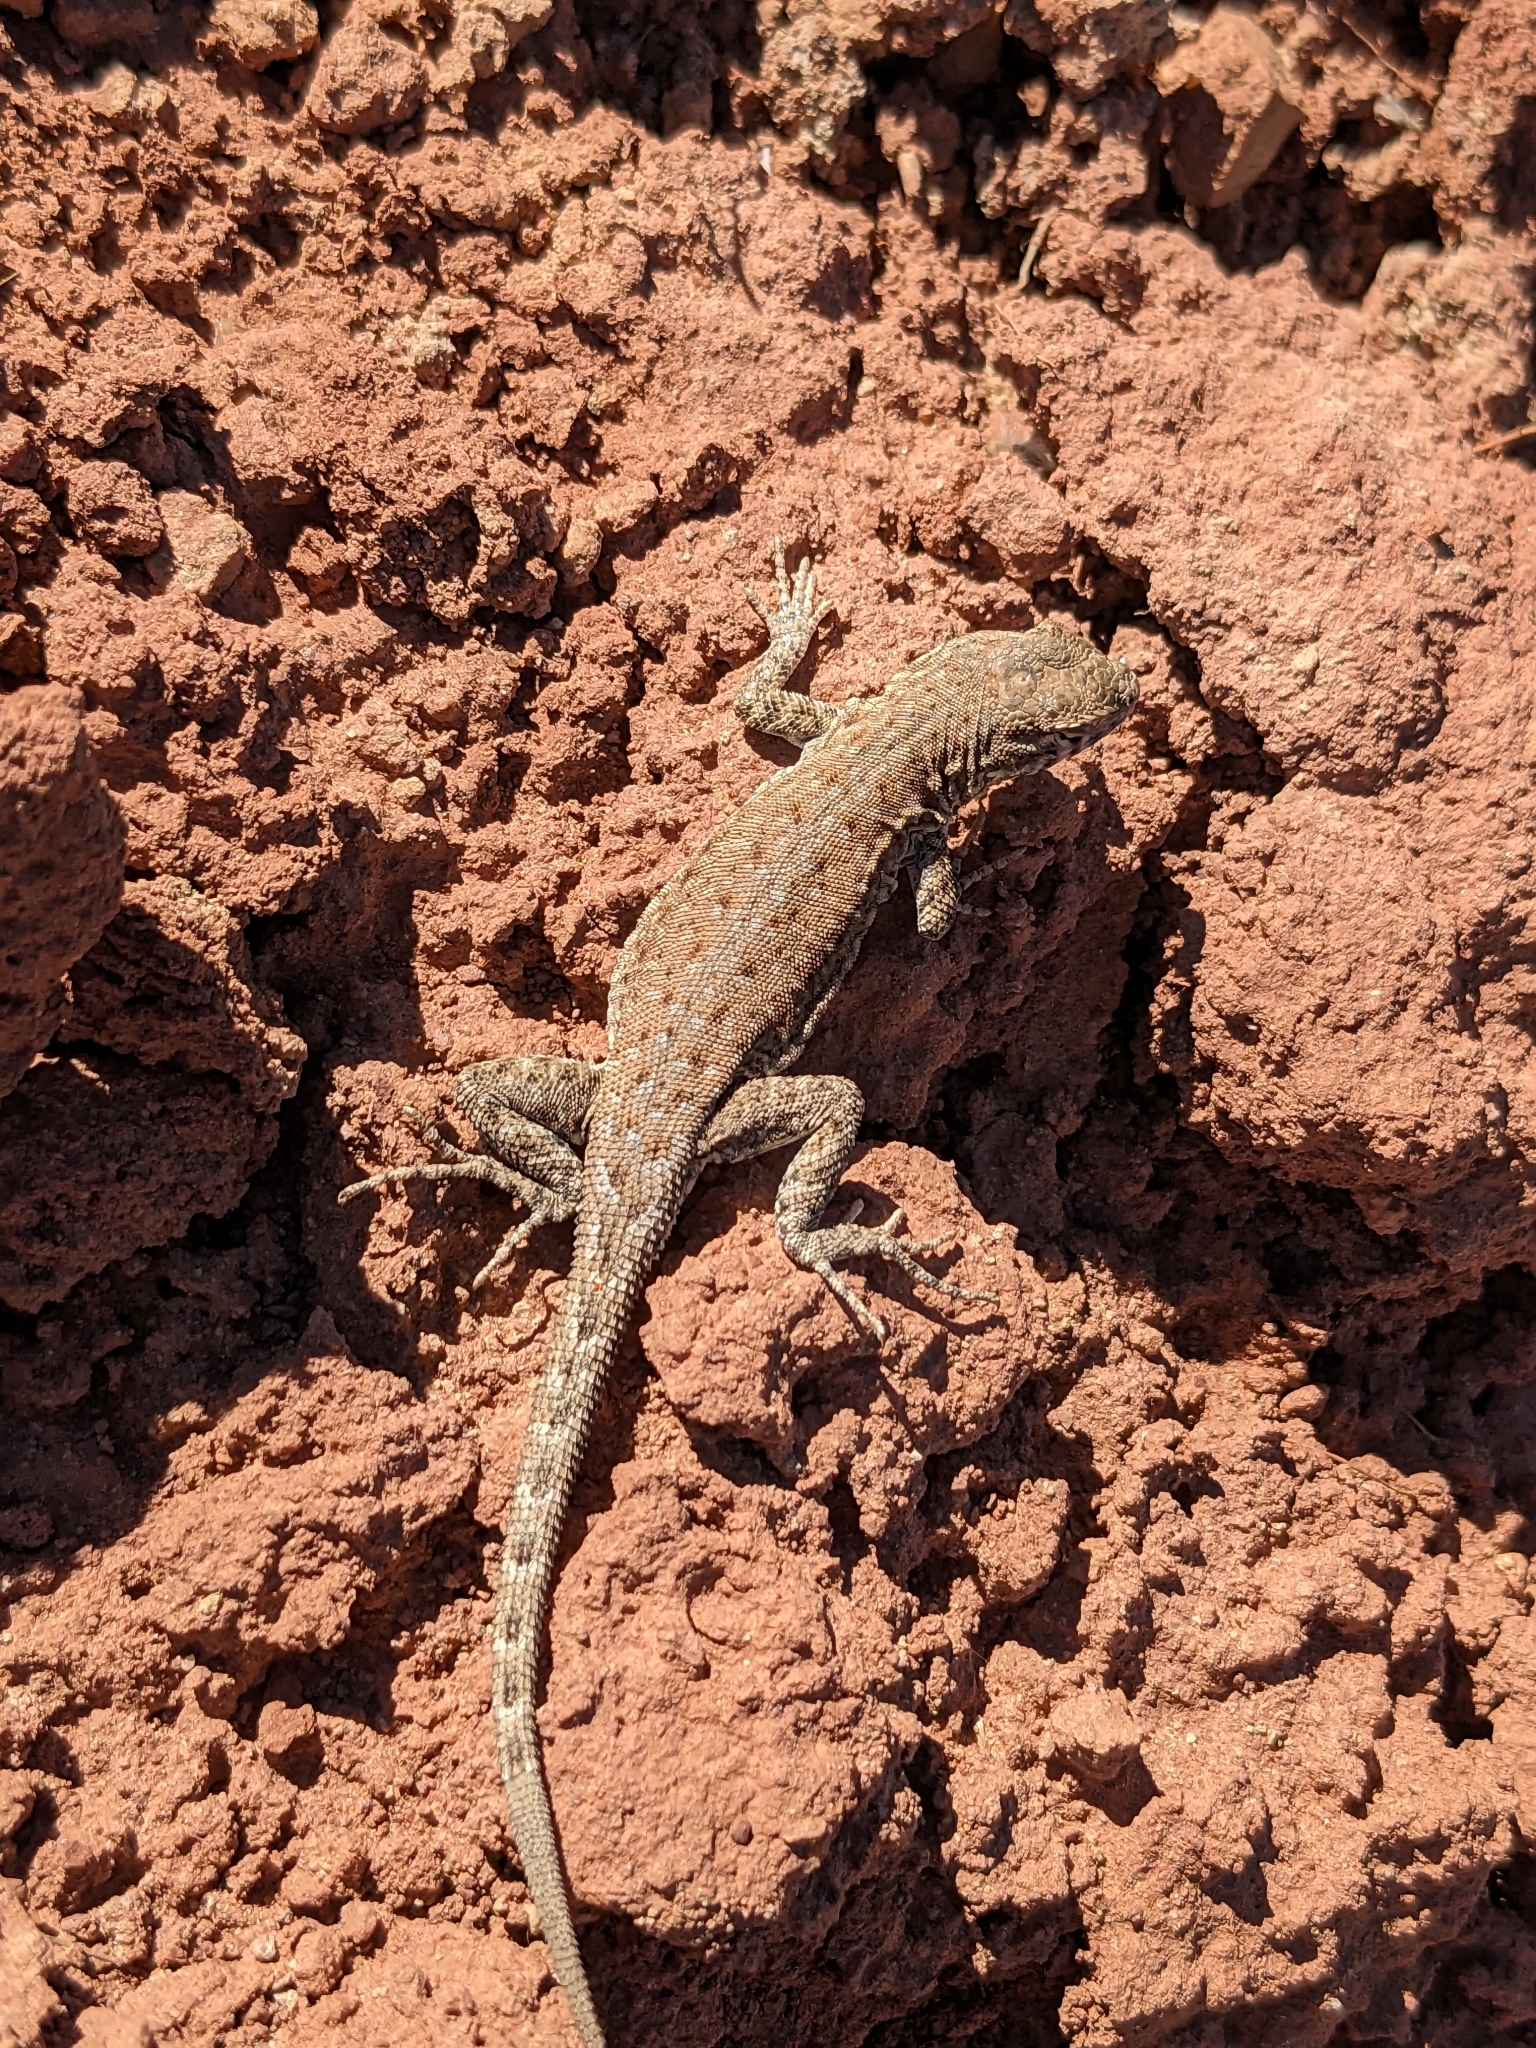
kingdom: Animalia
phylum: Chordata
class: Squamata
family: Phrynosomatidae
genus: Uta
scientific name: Uta stansburiana
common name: Side-blotched lizard
